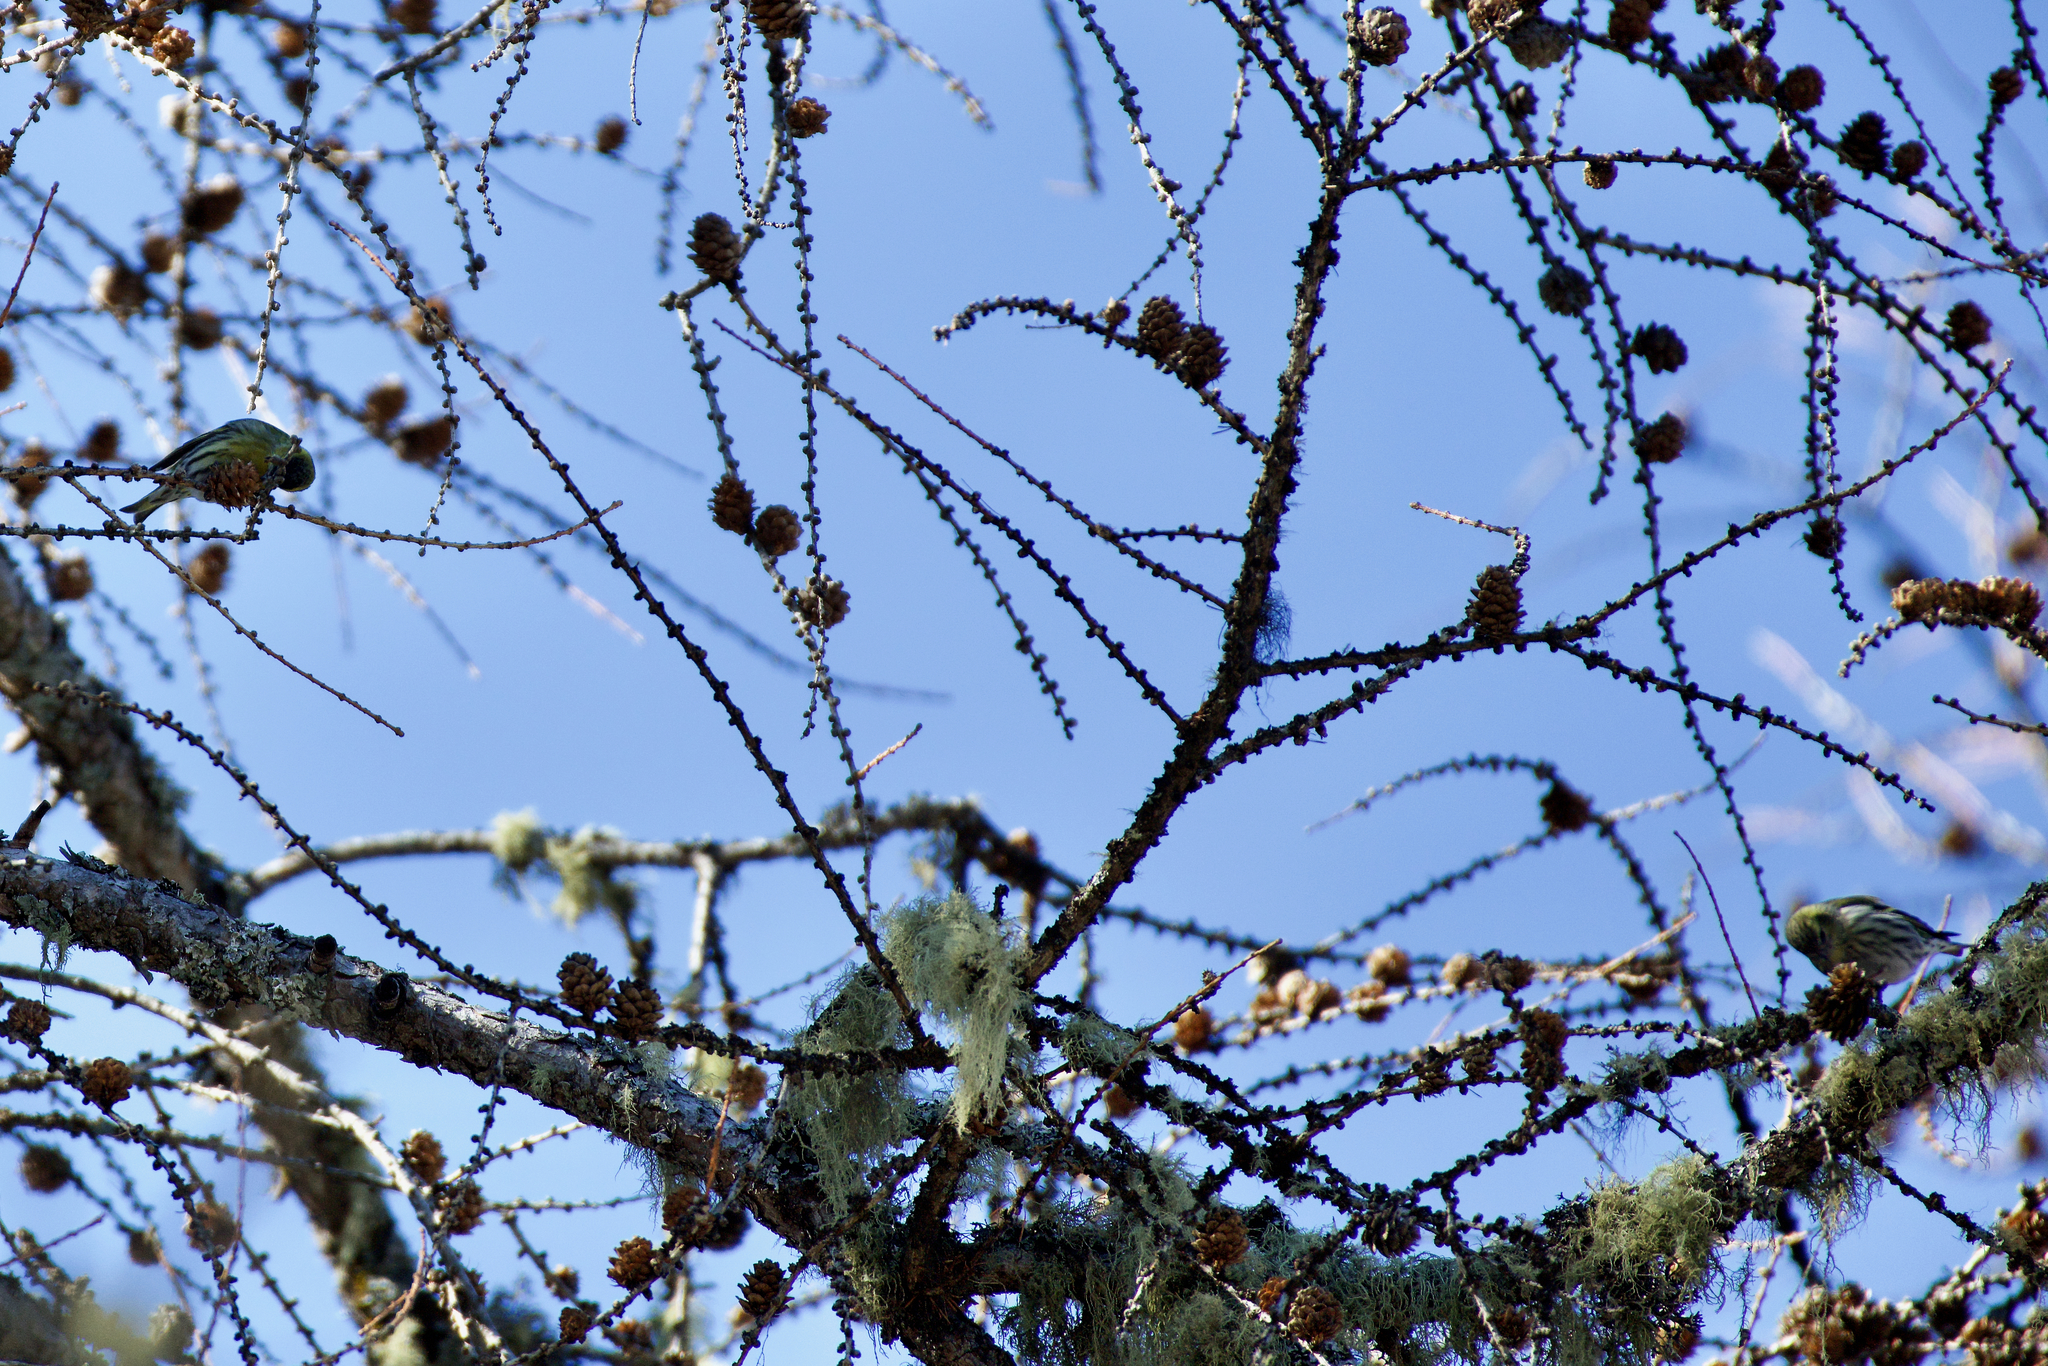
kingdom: Animalia
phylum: Chordata
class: Aves
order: Passeriformes
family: Fringillidae
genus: Spinus
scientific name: Spinus spinus
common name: Eurasian siskin
